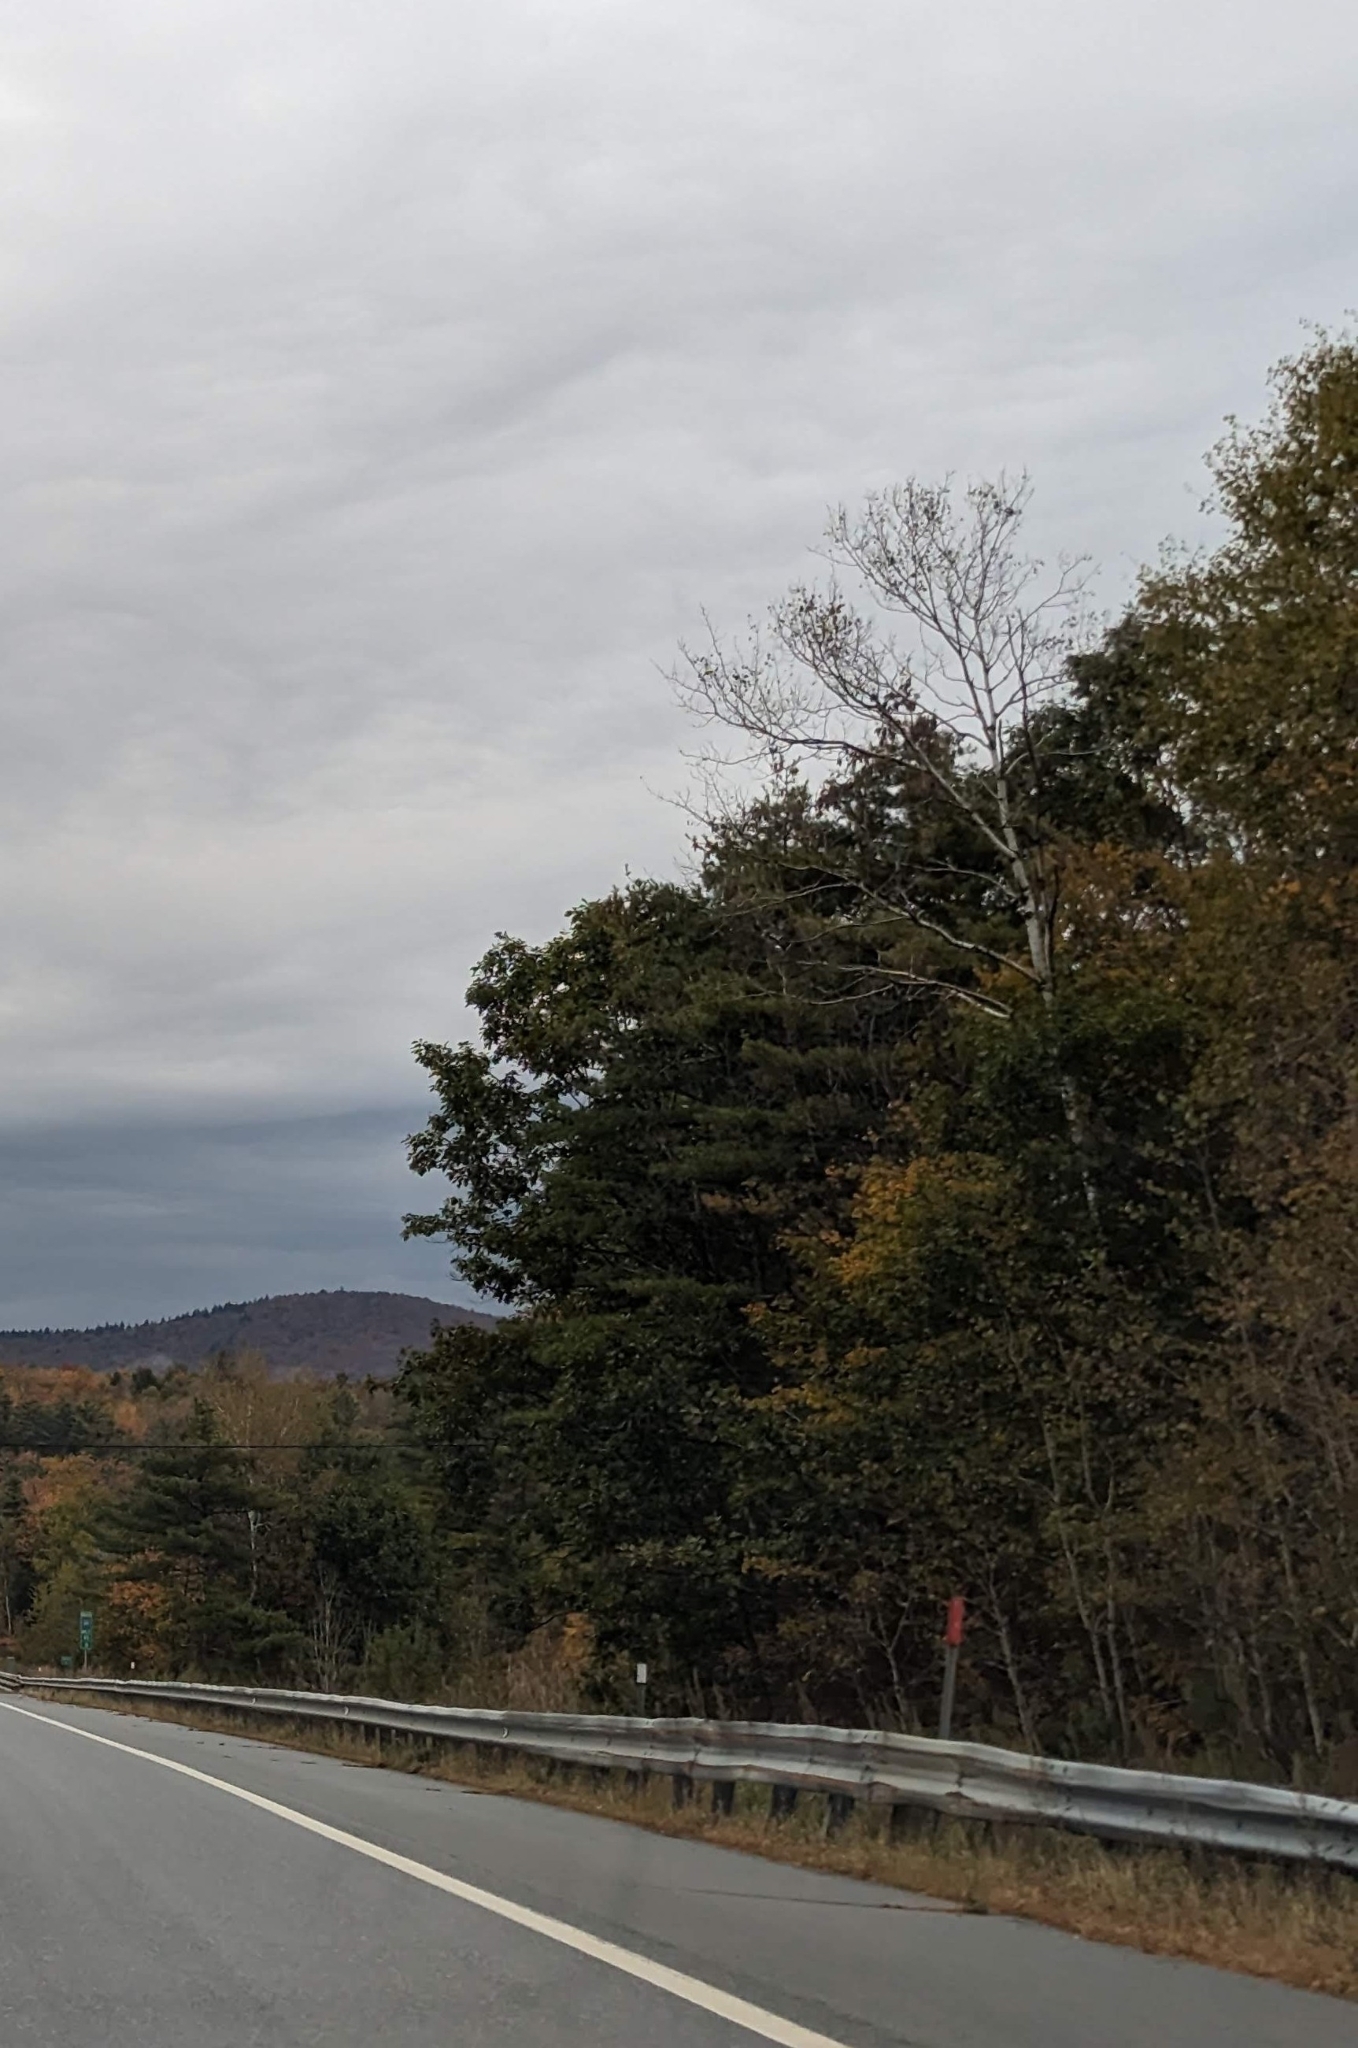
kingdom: Plantae
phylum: Tracheophyta
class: Pinopsida
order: Pinales
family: Pinaceae
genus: Pinus
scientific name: Pinus strobus
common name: Weymouth pine
